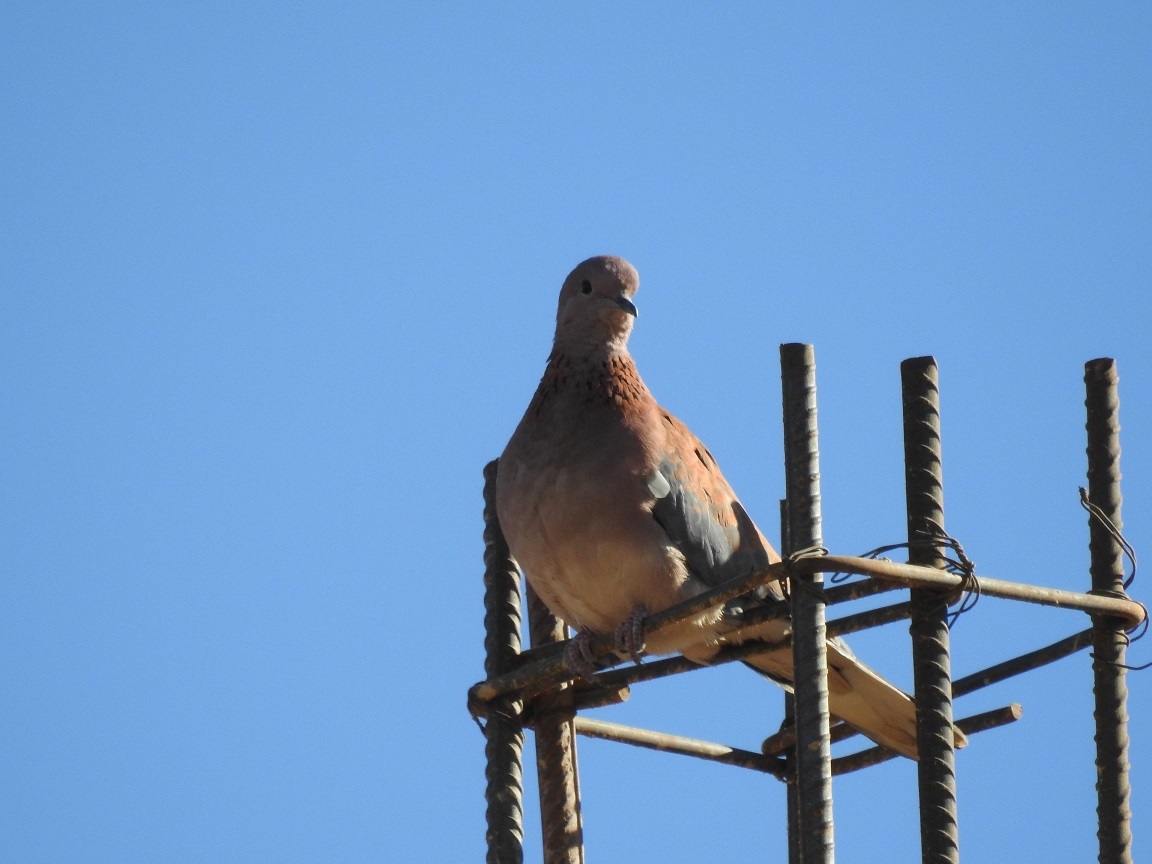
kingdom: Animalia
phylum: Chordata
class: Aves
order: Columbiformes
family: Columbidae
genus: Spilopelia
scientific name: Spilopelia senegalensis
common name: Laughing dove
